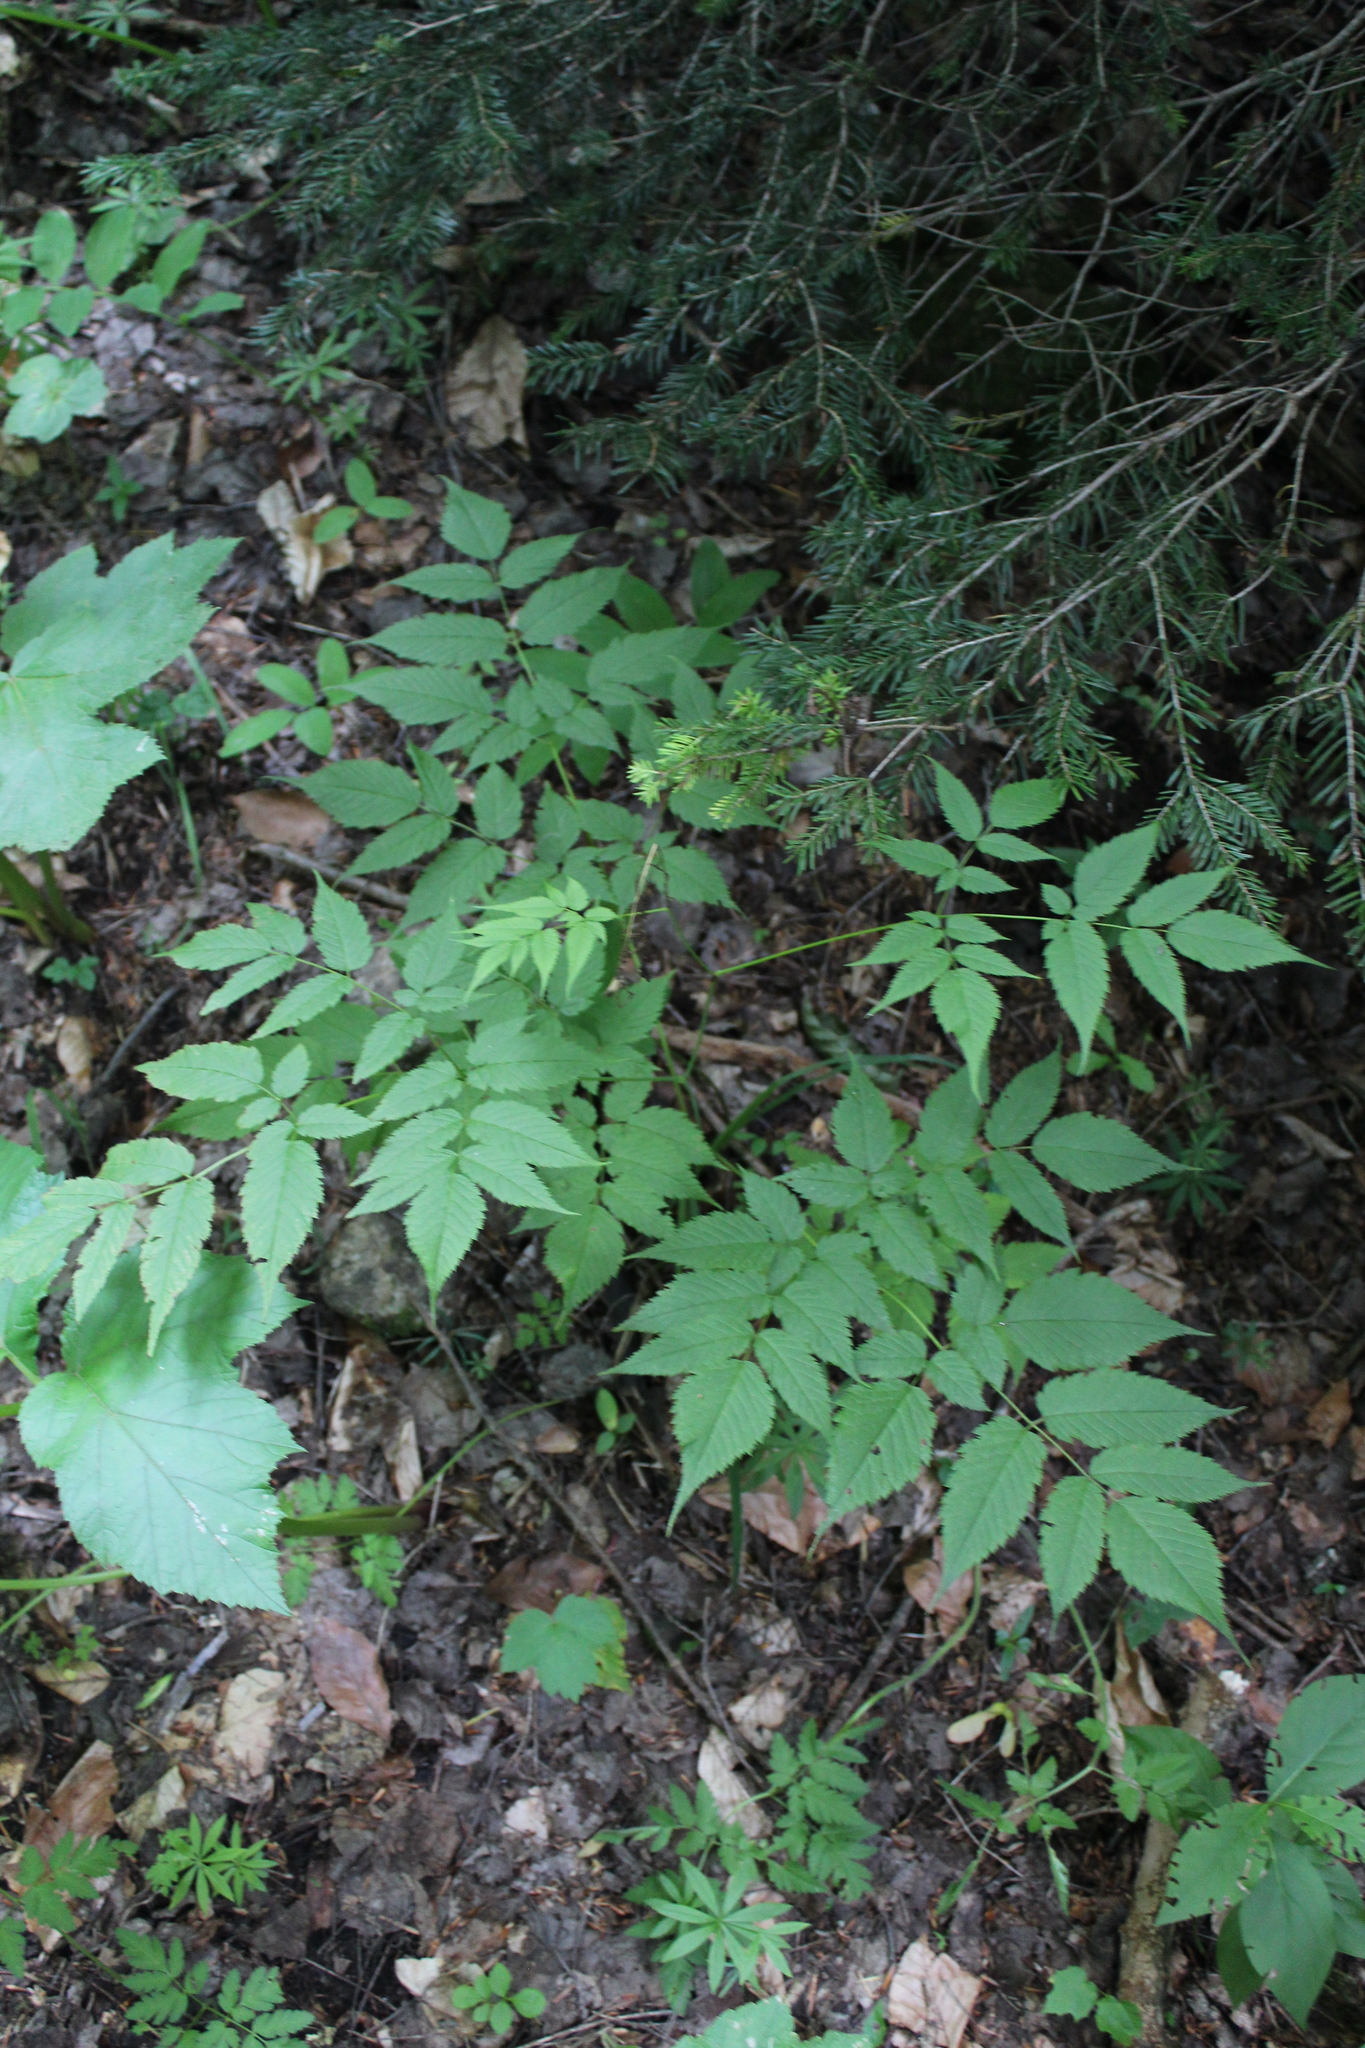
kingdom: Plantae
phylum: Tracheophyta
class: Magnoliopsida
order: Rosales
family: Rosaceae
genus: Aruncus
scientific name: Aruncus sylvester
